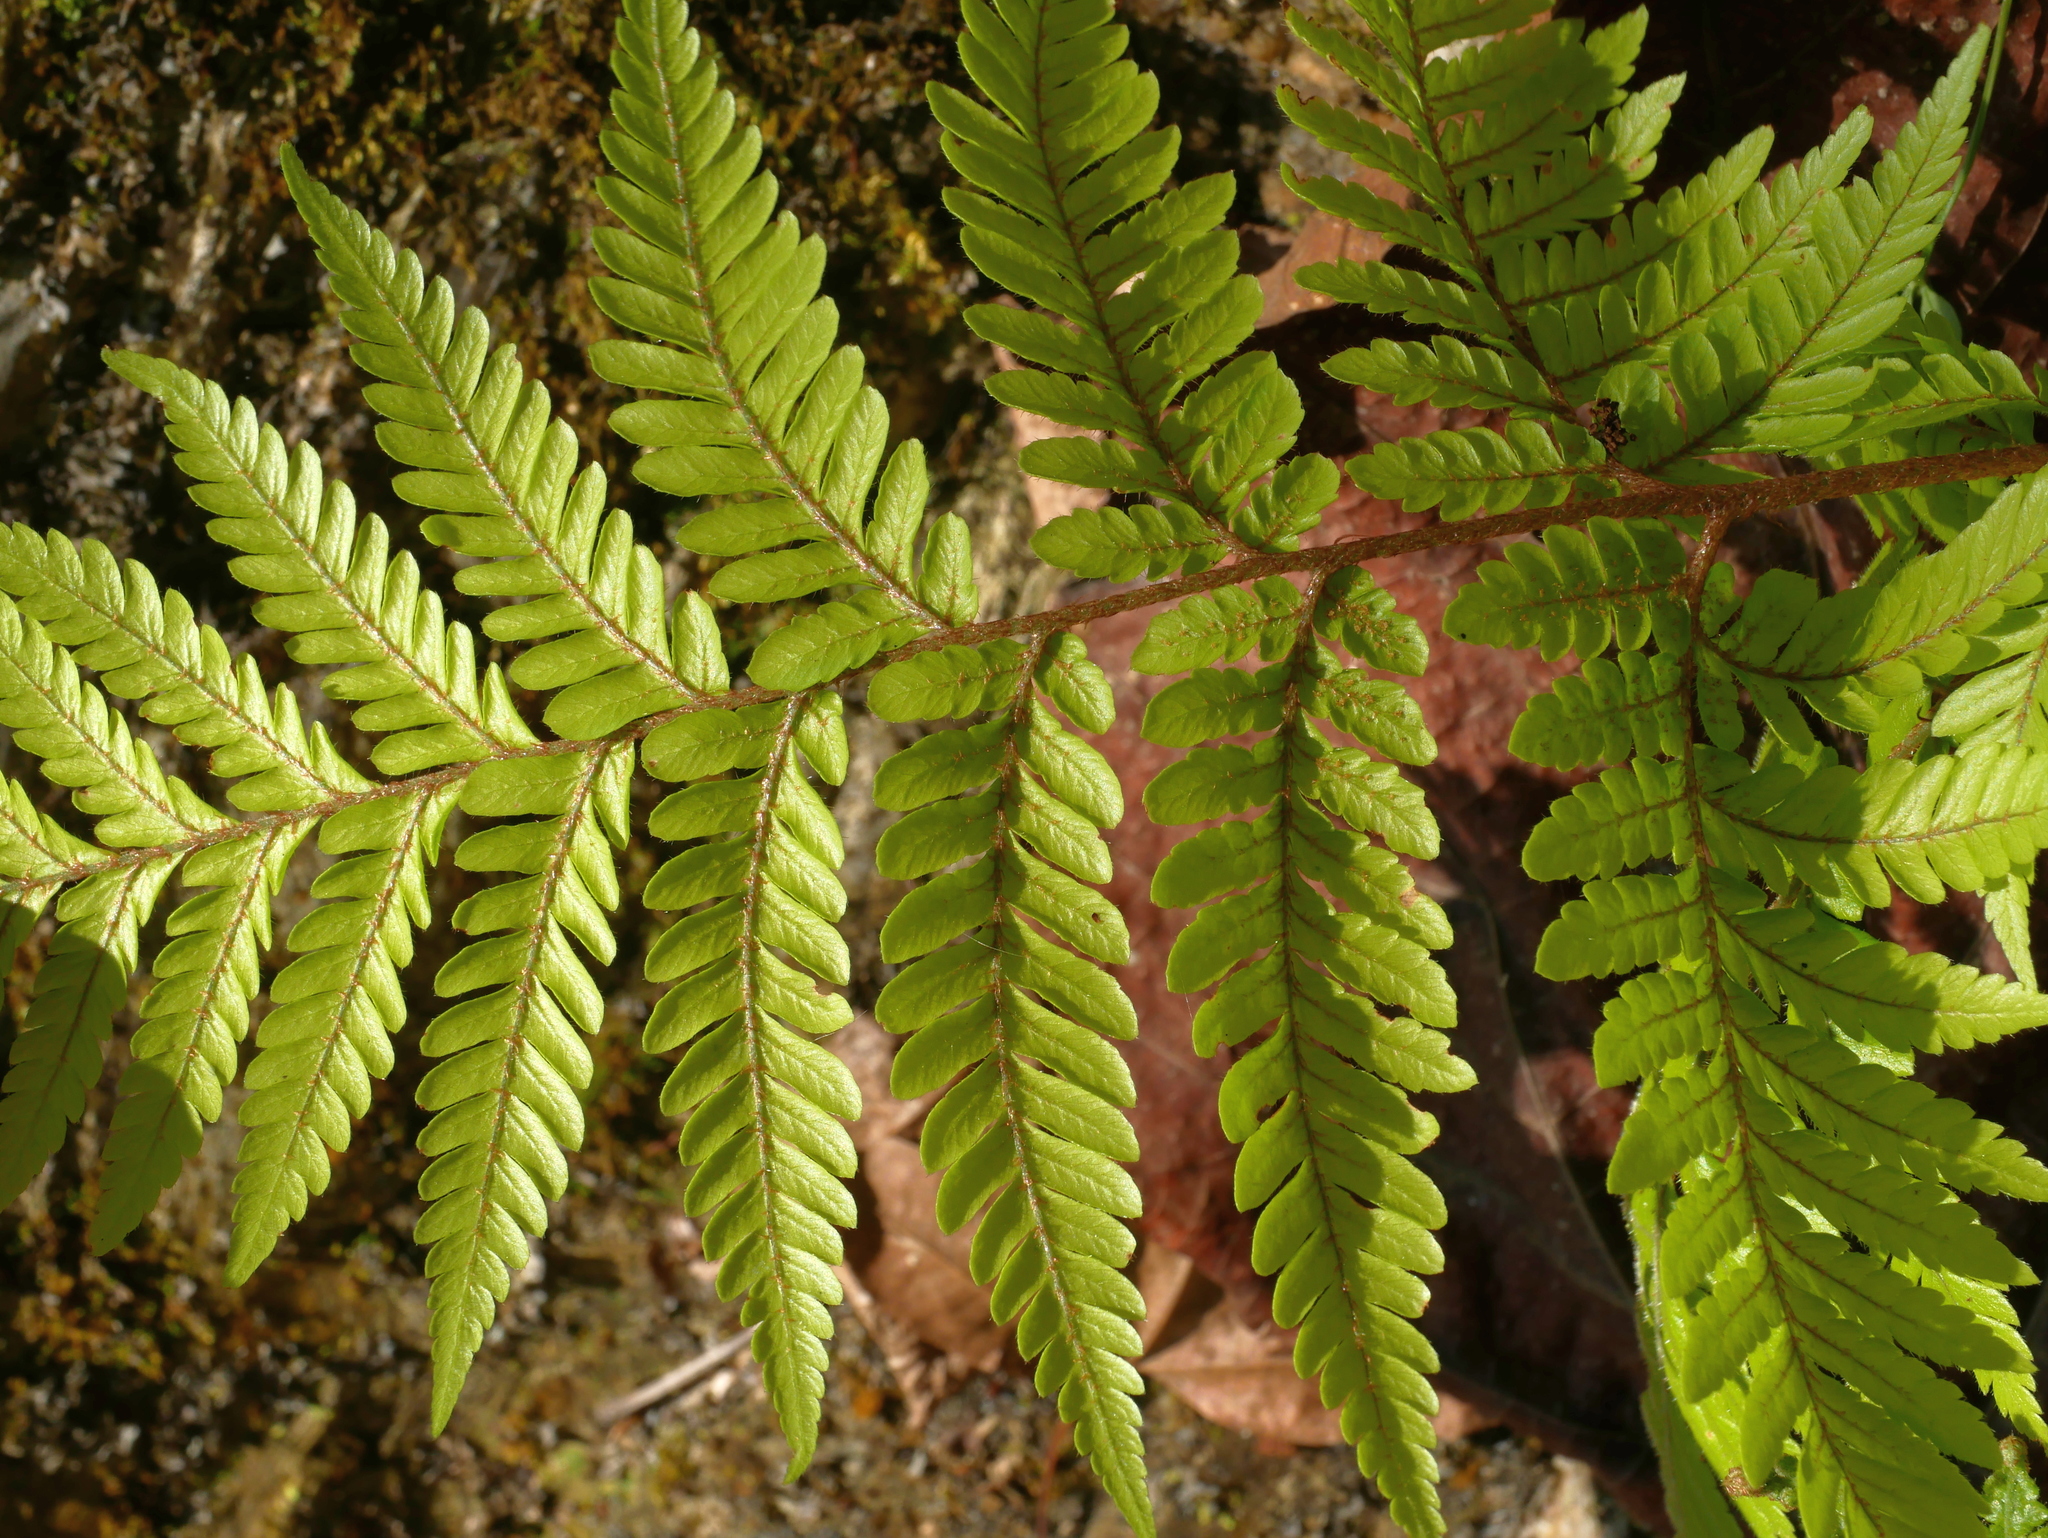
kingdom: Plantae
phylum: Tracheophyta
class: Polypodiopsida
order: Polypodiales
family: Dryopteridaceae
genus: Ctenitis
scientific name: Ctenitis subglandulosa
